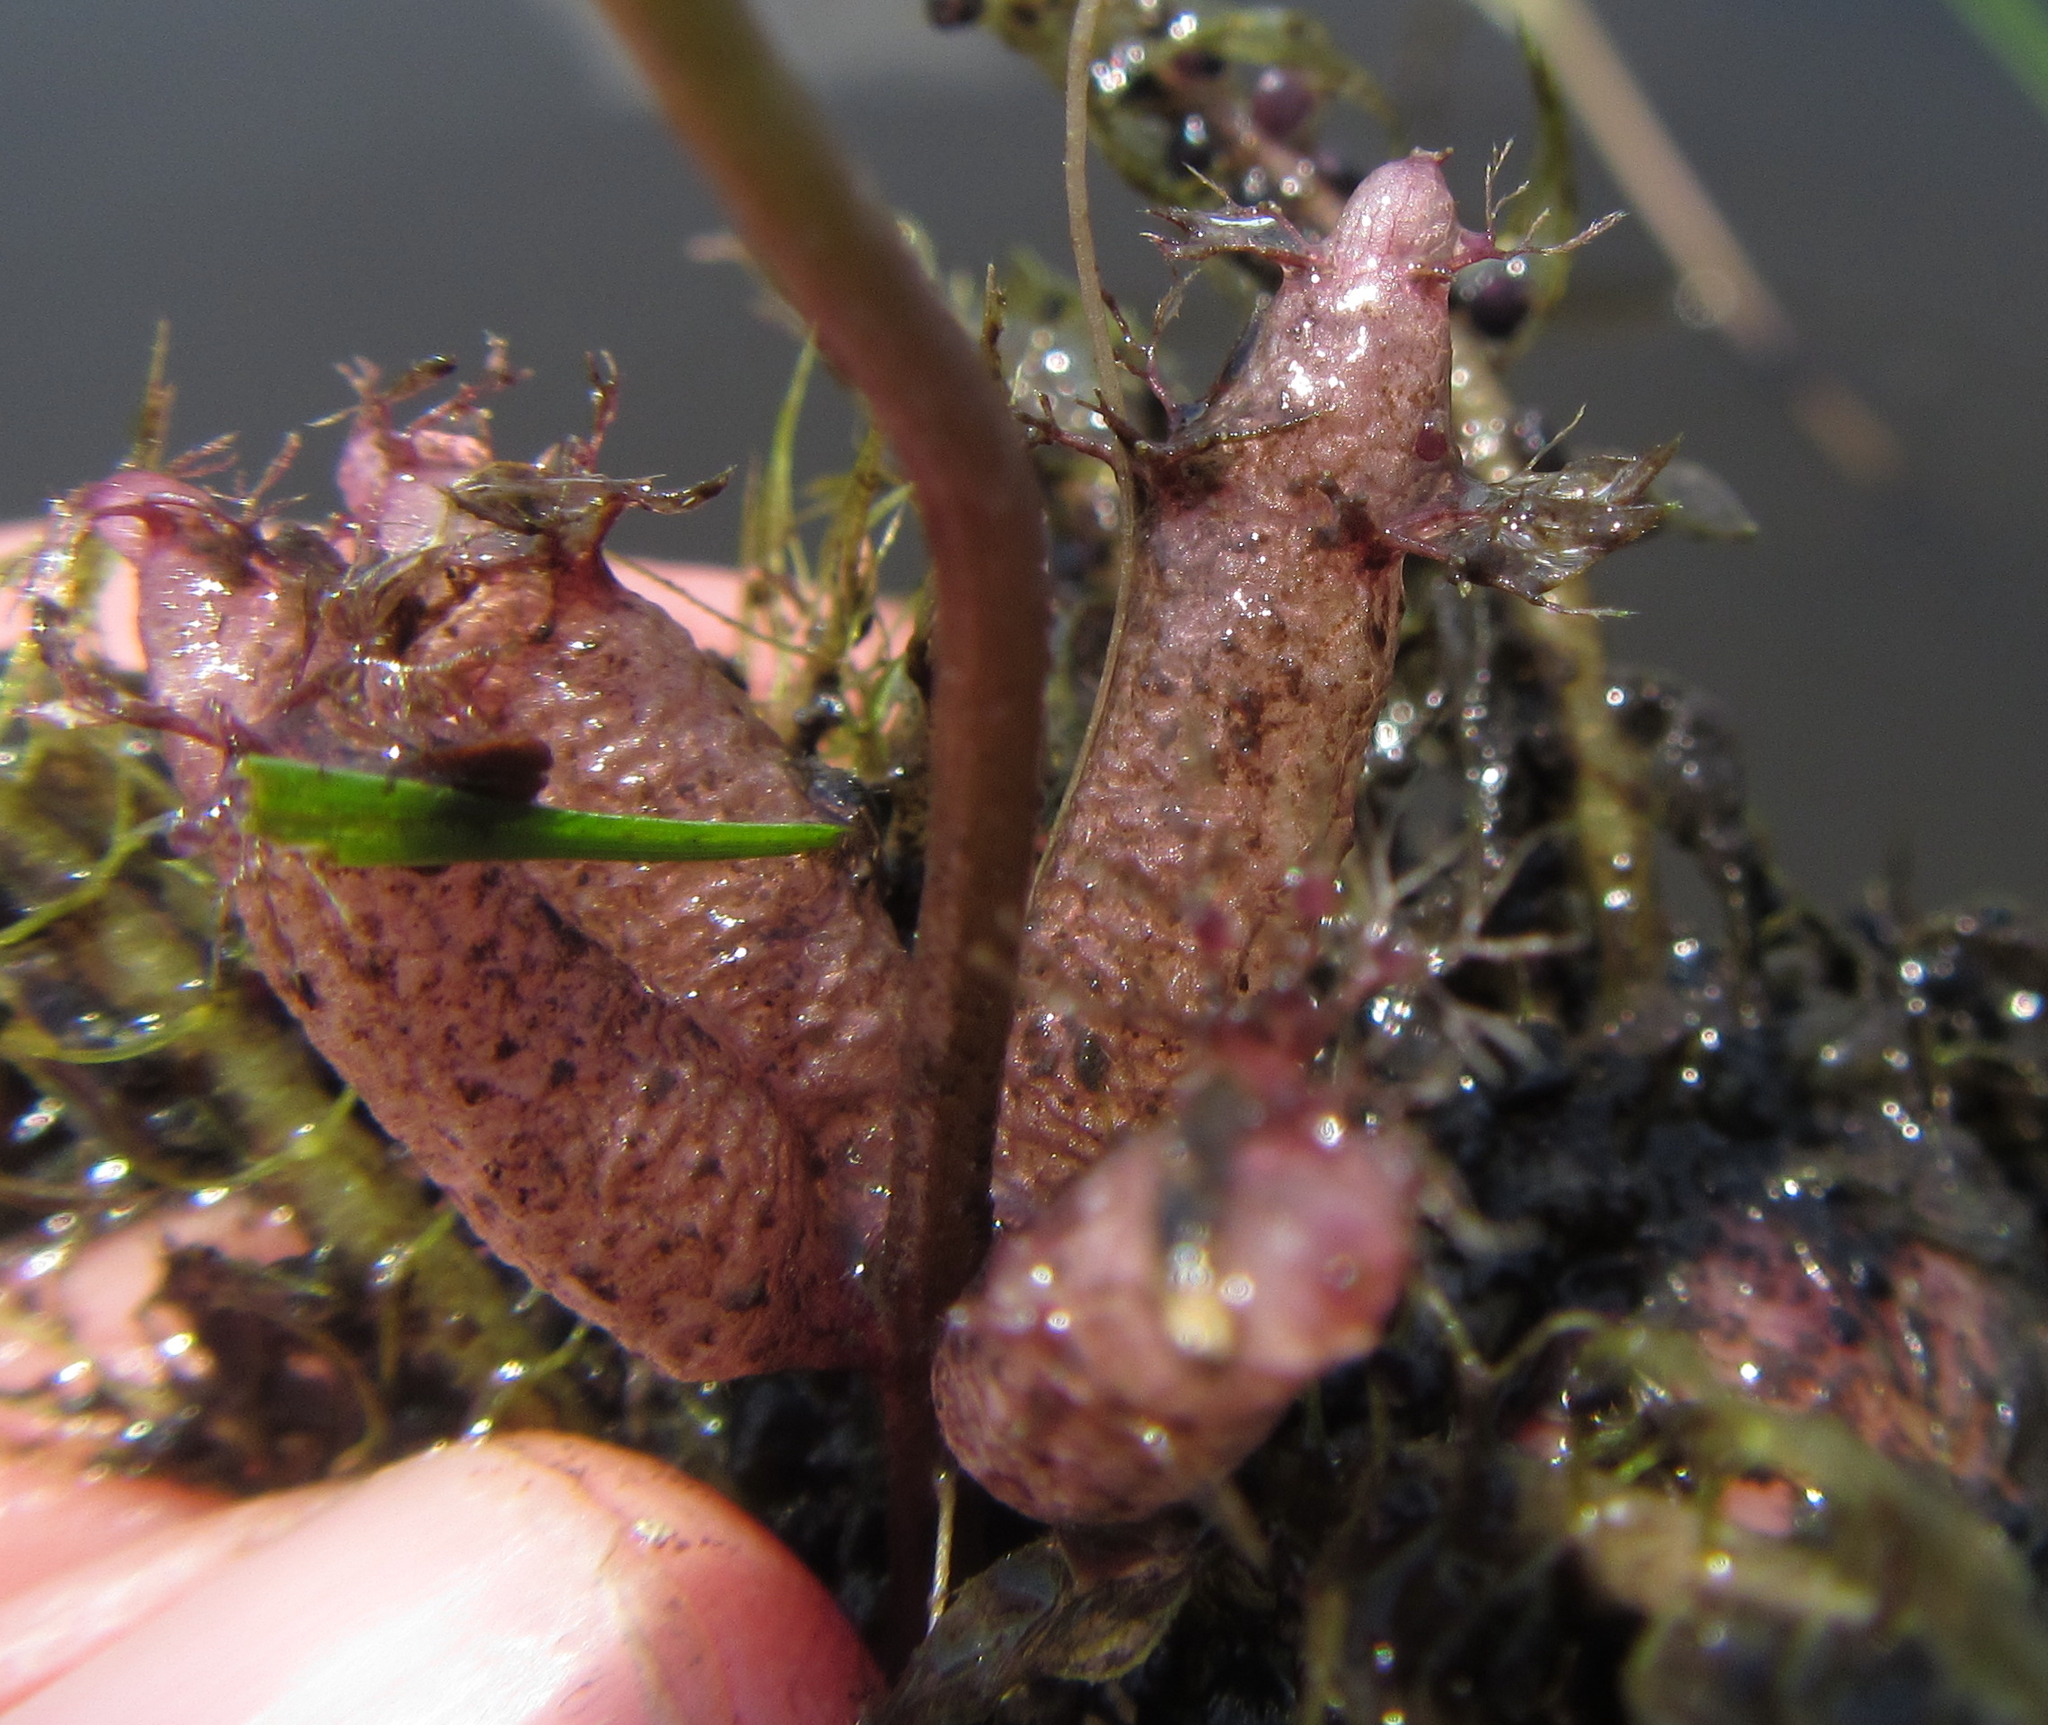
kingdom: Plantae
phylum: Tracheophyta
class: Magnoliopsida
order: Lamiales
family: Lentibulariaceae
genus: Utricularia
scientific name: Utricularia stellaris
